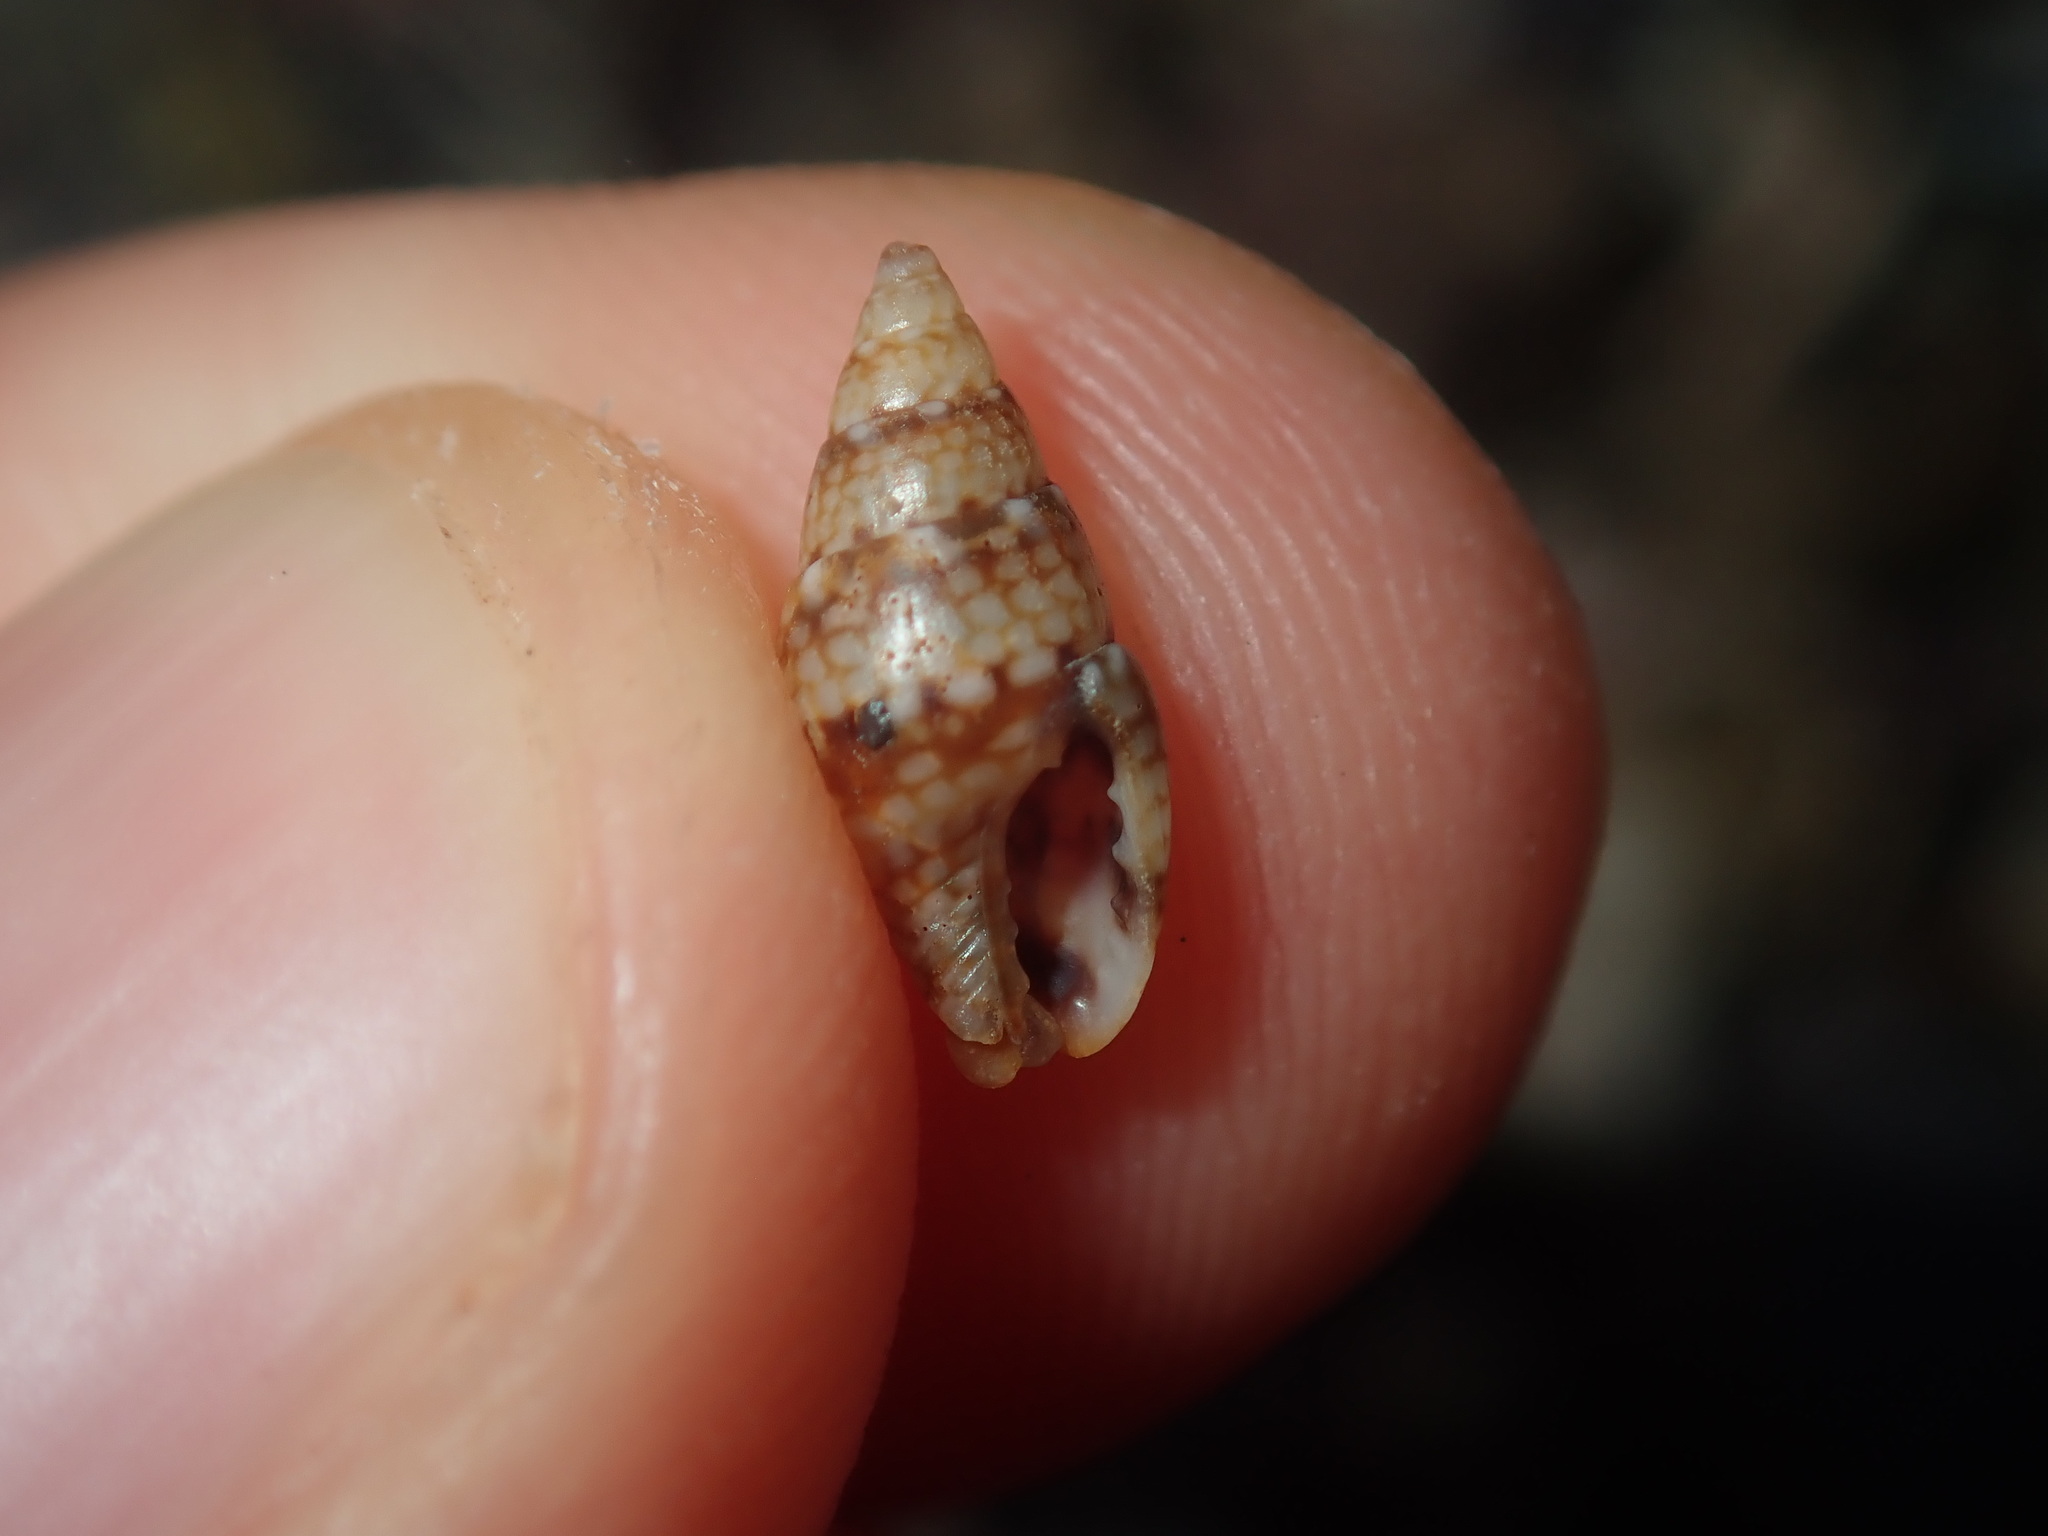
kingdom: Animalia
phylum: Mollusca
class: Gastropoda
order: Neogastropoda
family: Columbellidae
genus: Pseudamycla
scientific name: Pseudamycla dermestoidea
